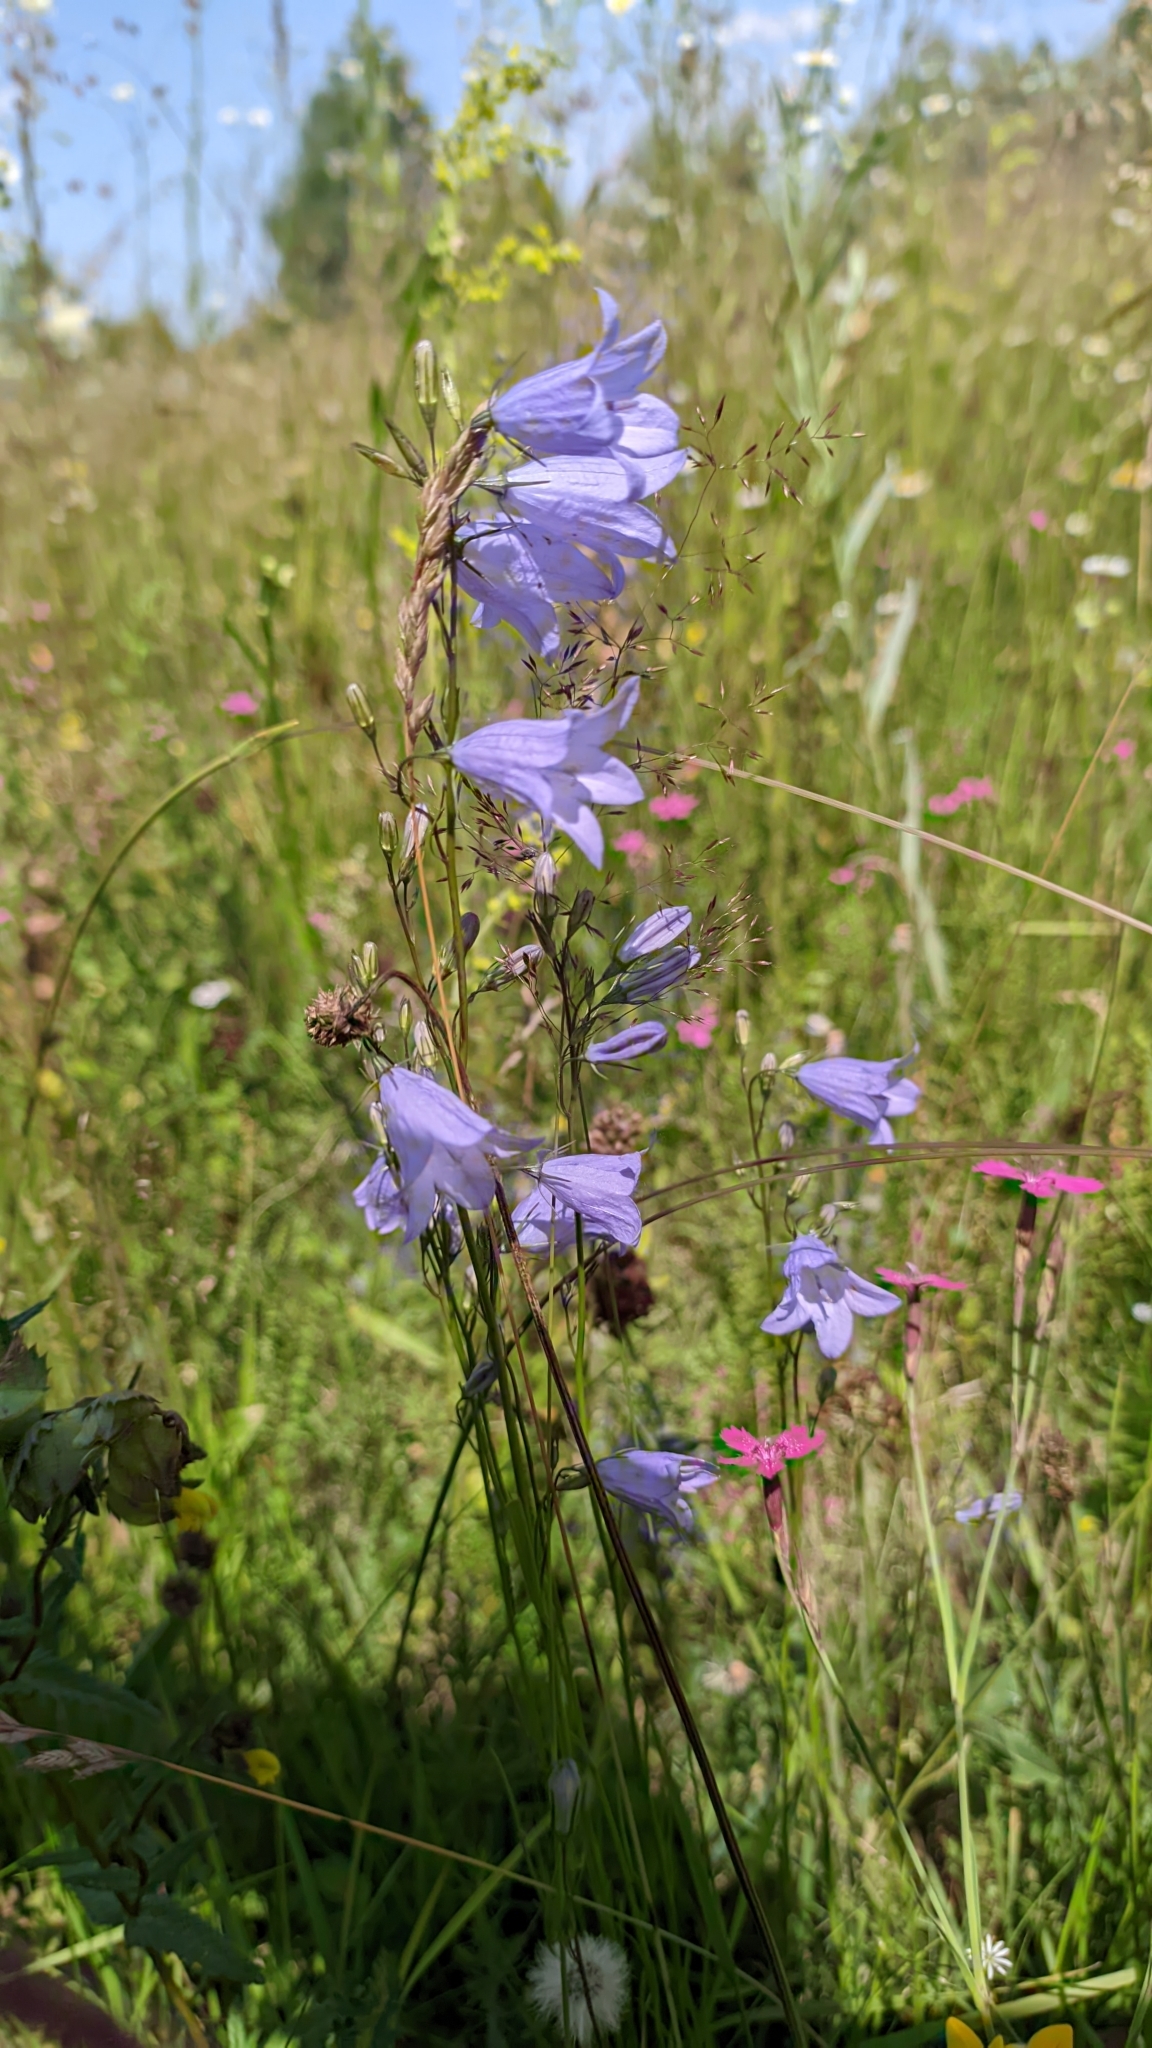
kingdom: Plantae
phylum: Tracheophyta
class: Magnoliopsida
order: Asterales
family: Campanulaceae
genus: Campanula
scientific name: Campanula rotundifolia
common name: Harebell
